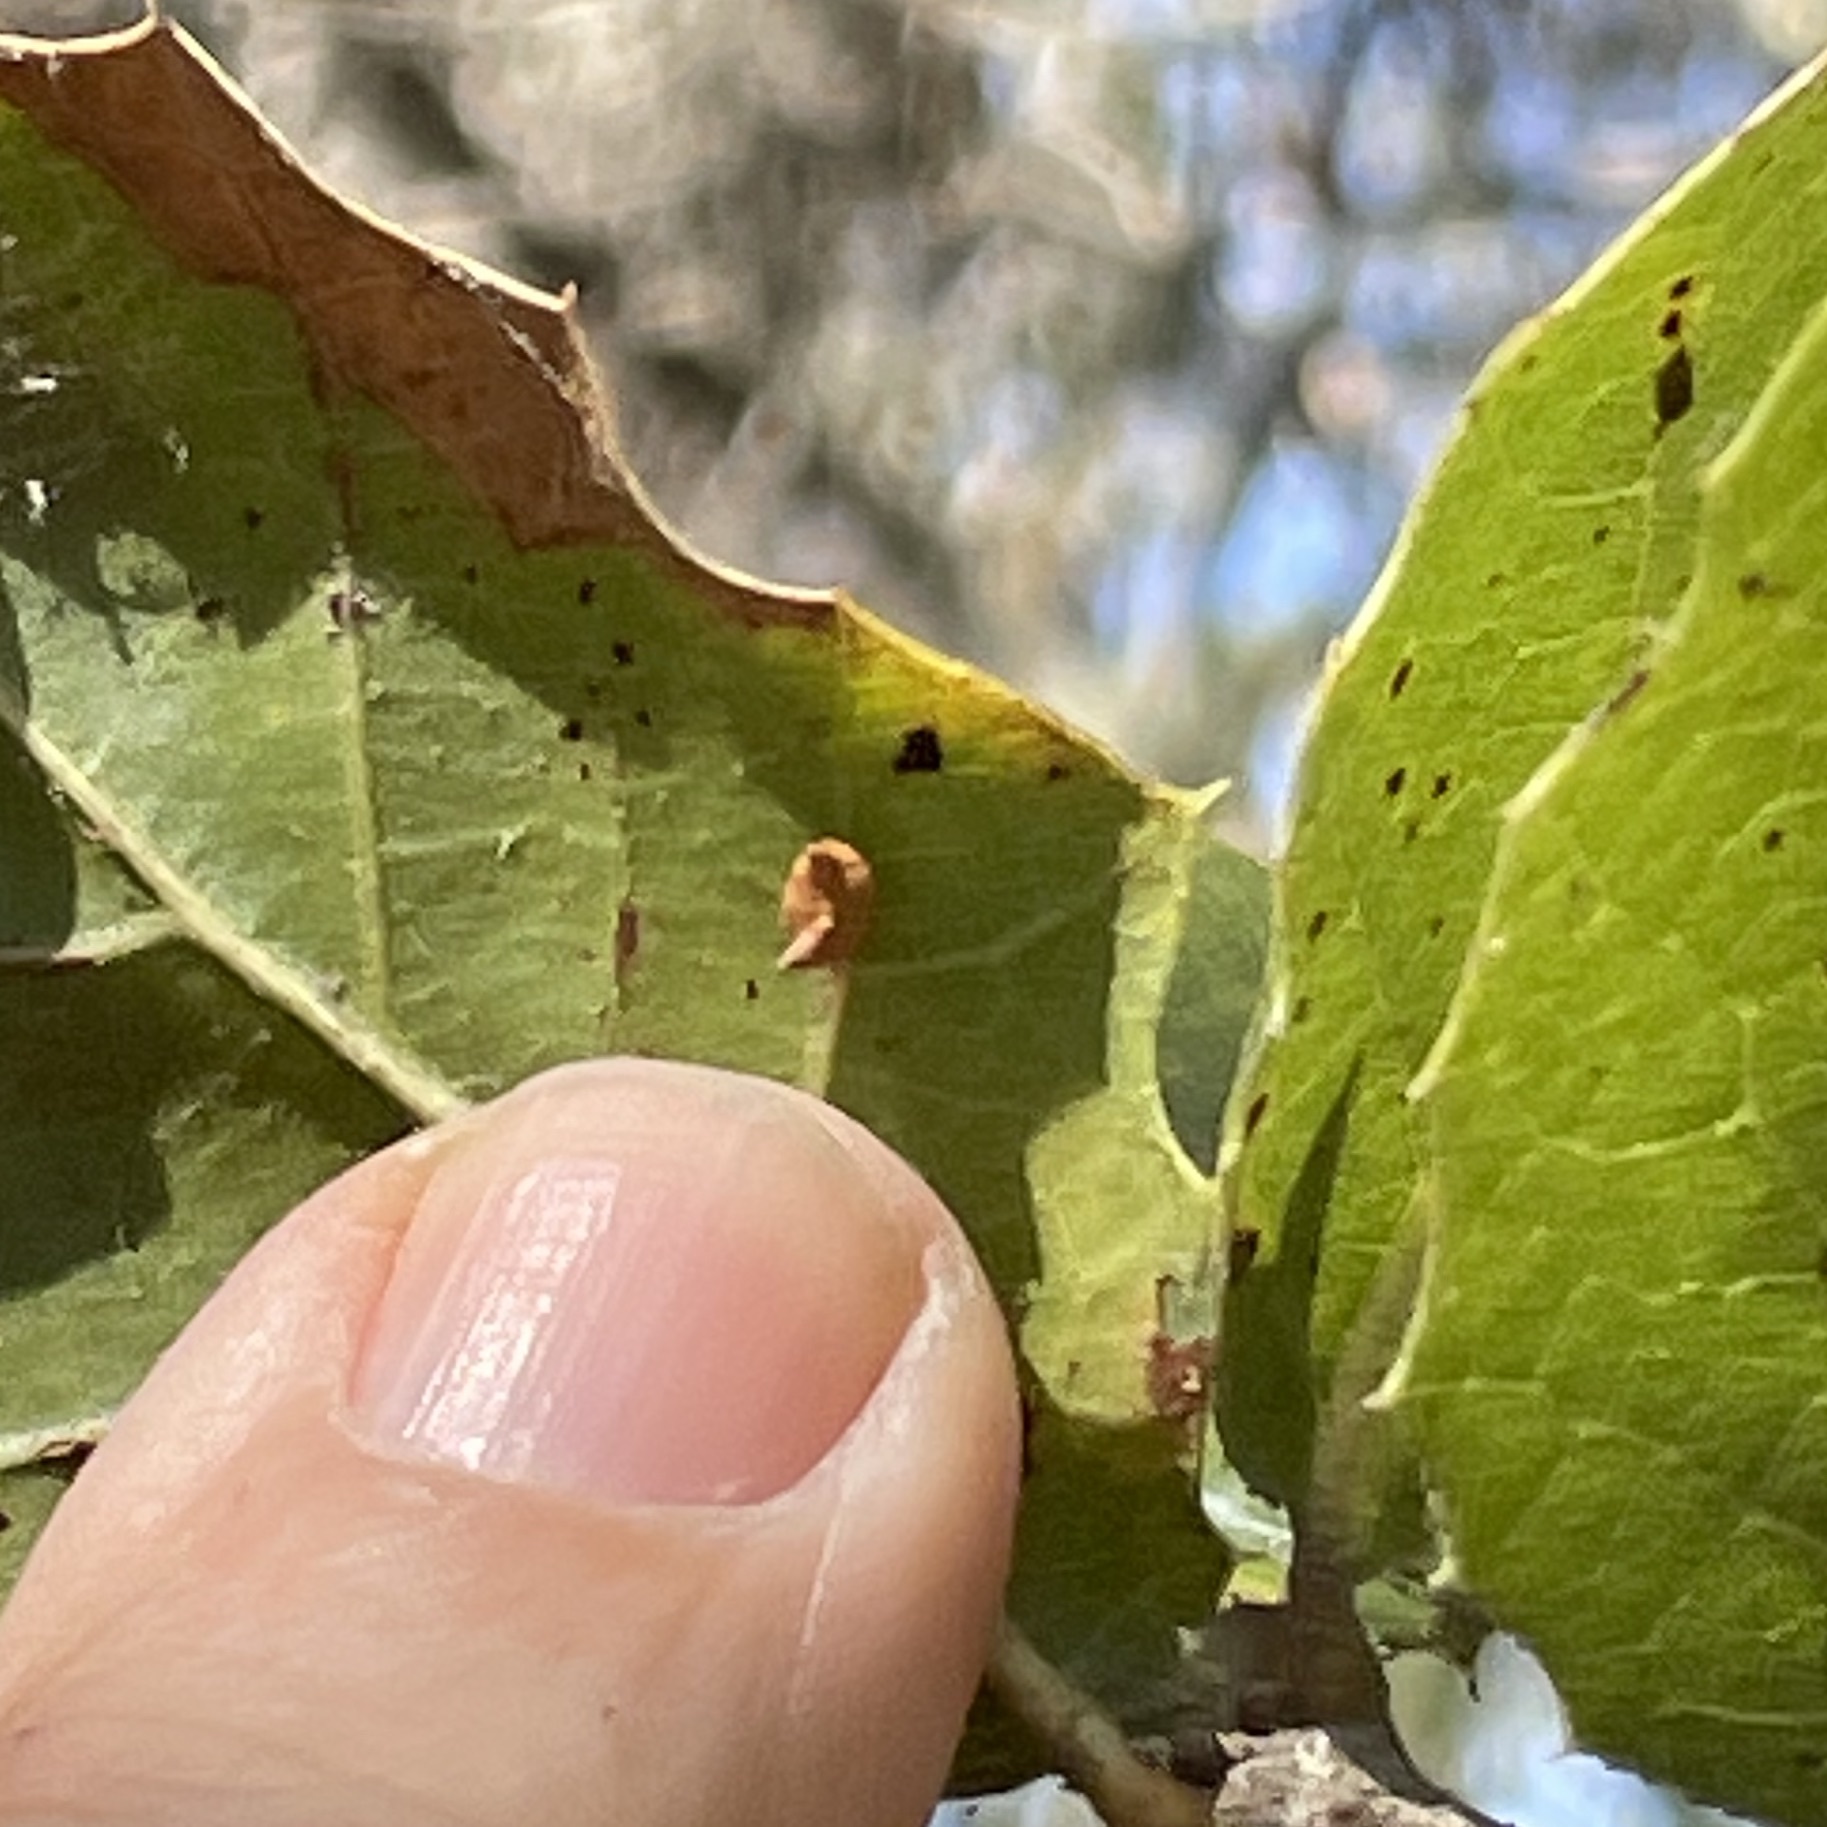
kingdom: Animalia
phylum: Arthropoda
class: Insecta
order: Hymenoptera
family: Cynipidae
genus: Dryocosmus
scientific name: Dryocosmus
